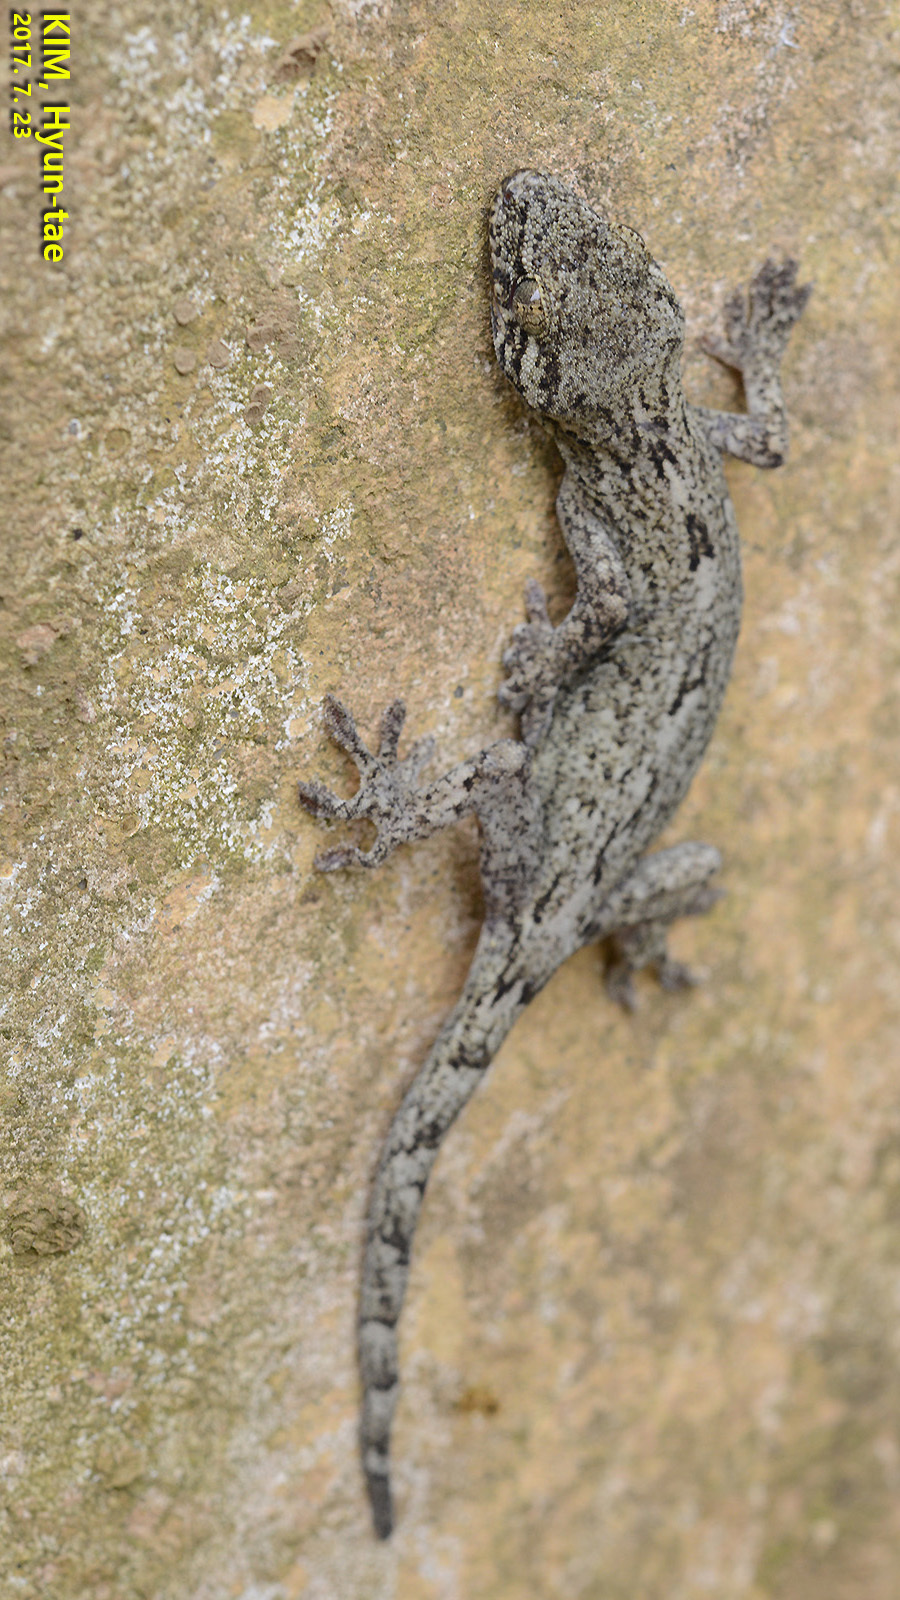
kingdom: Animalia
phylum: Chordata
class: Squamata
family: Gekkonidae
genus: Gekko
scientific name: Gekko japonicus
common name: Schlegel's japanese gecko
